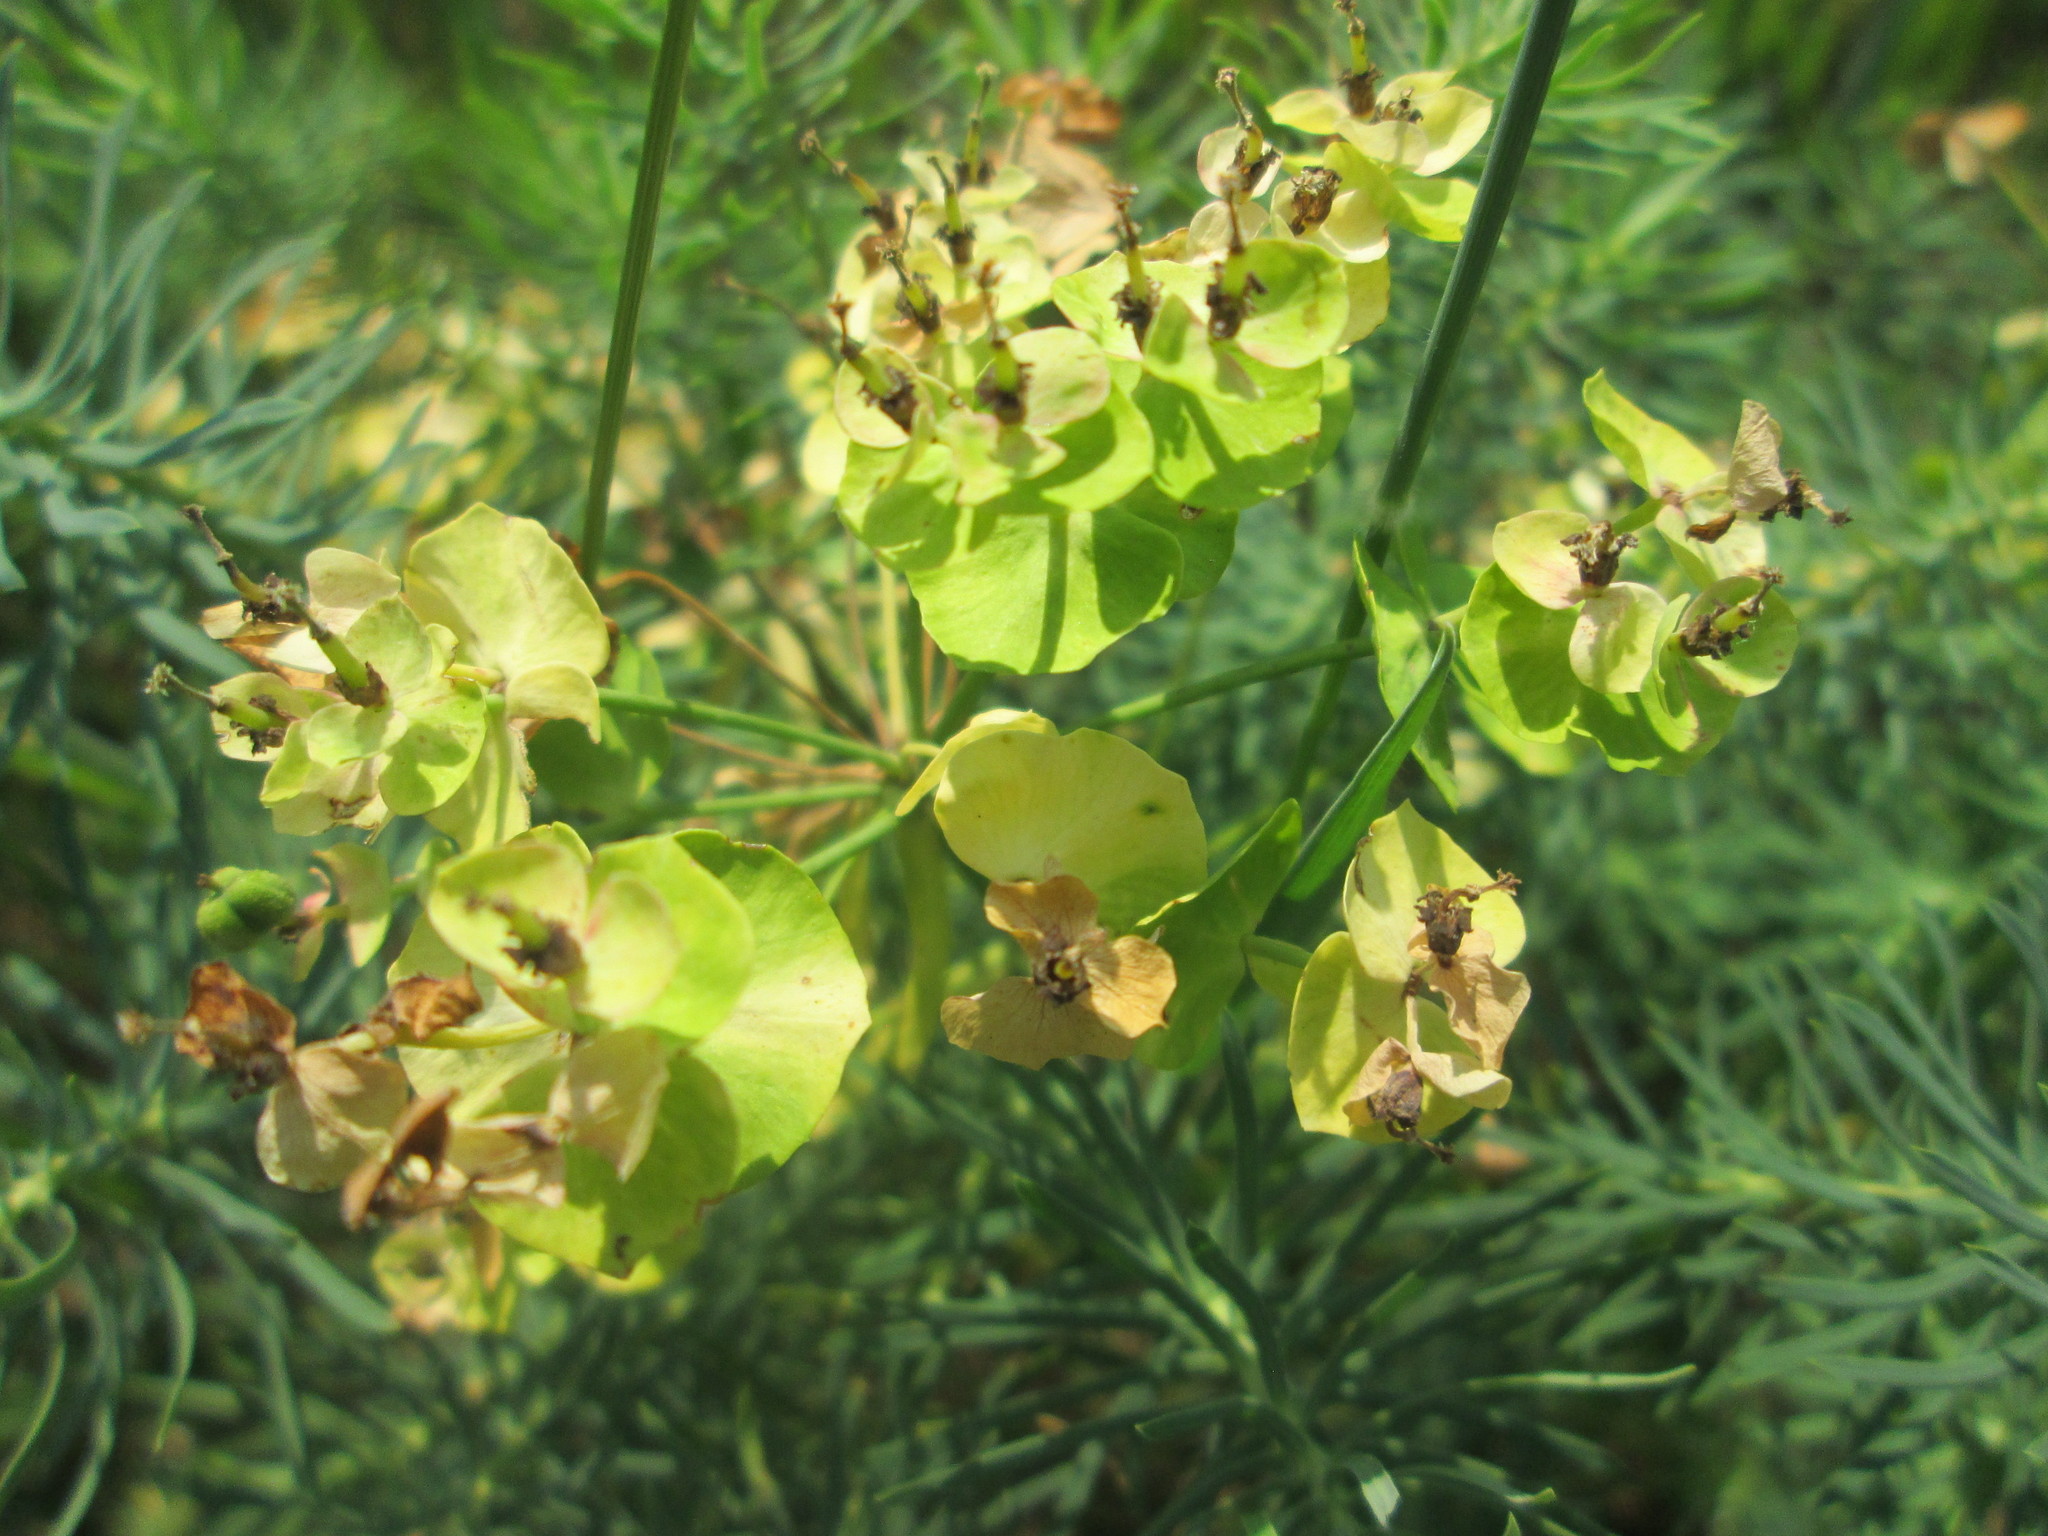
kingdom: Plantae
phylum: Tracheophyta
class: Magnoliopsida
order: Malpighiales
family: Euphorbiaceae
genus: Euphorbia
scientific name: Euphorbia cyparissias
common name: Cypress spurge
